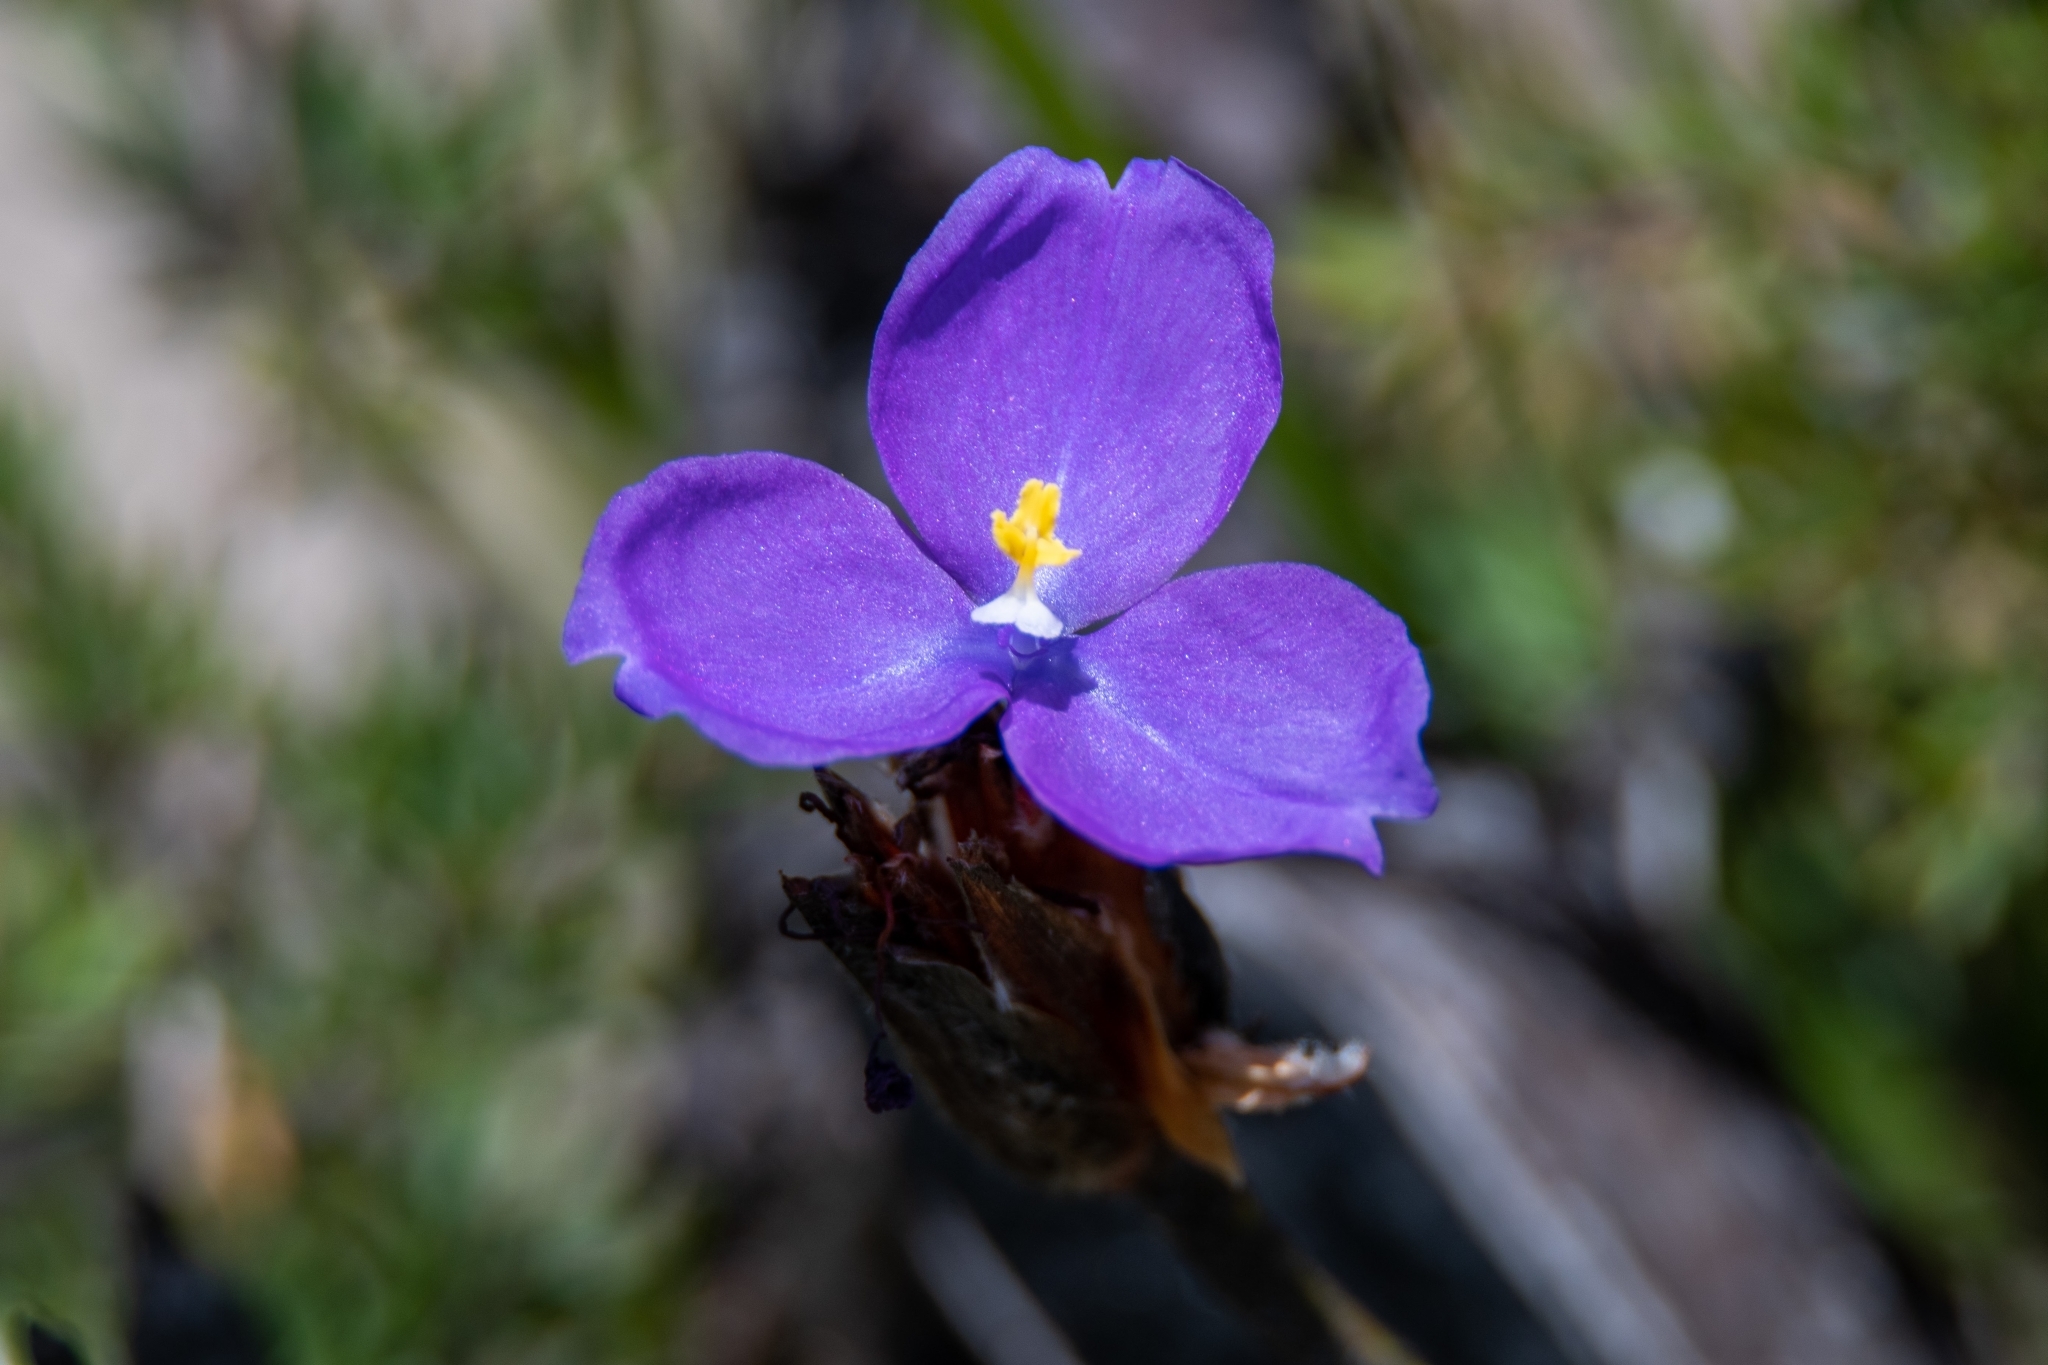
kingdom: Plantae
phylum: Tracheophyta
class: Liliopsida
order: Asparagales
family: Iridaceae
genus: Patersonia
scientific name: Patersonia sericea
